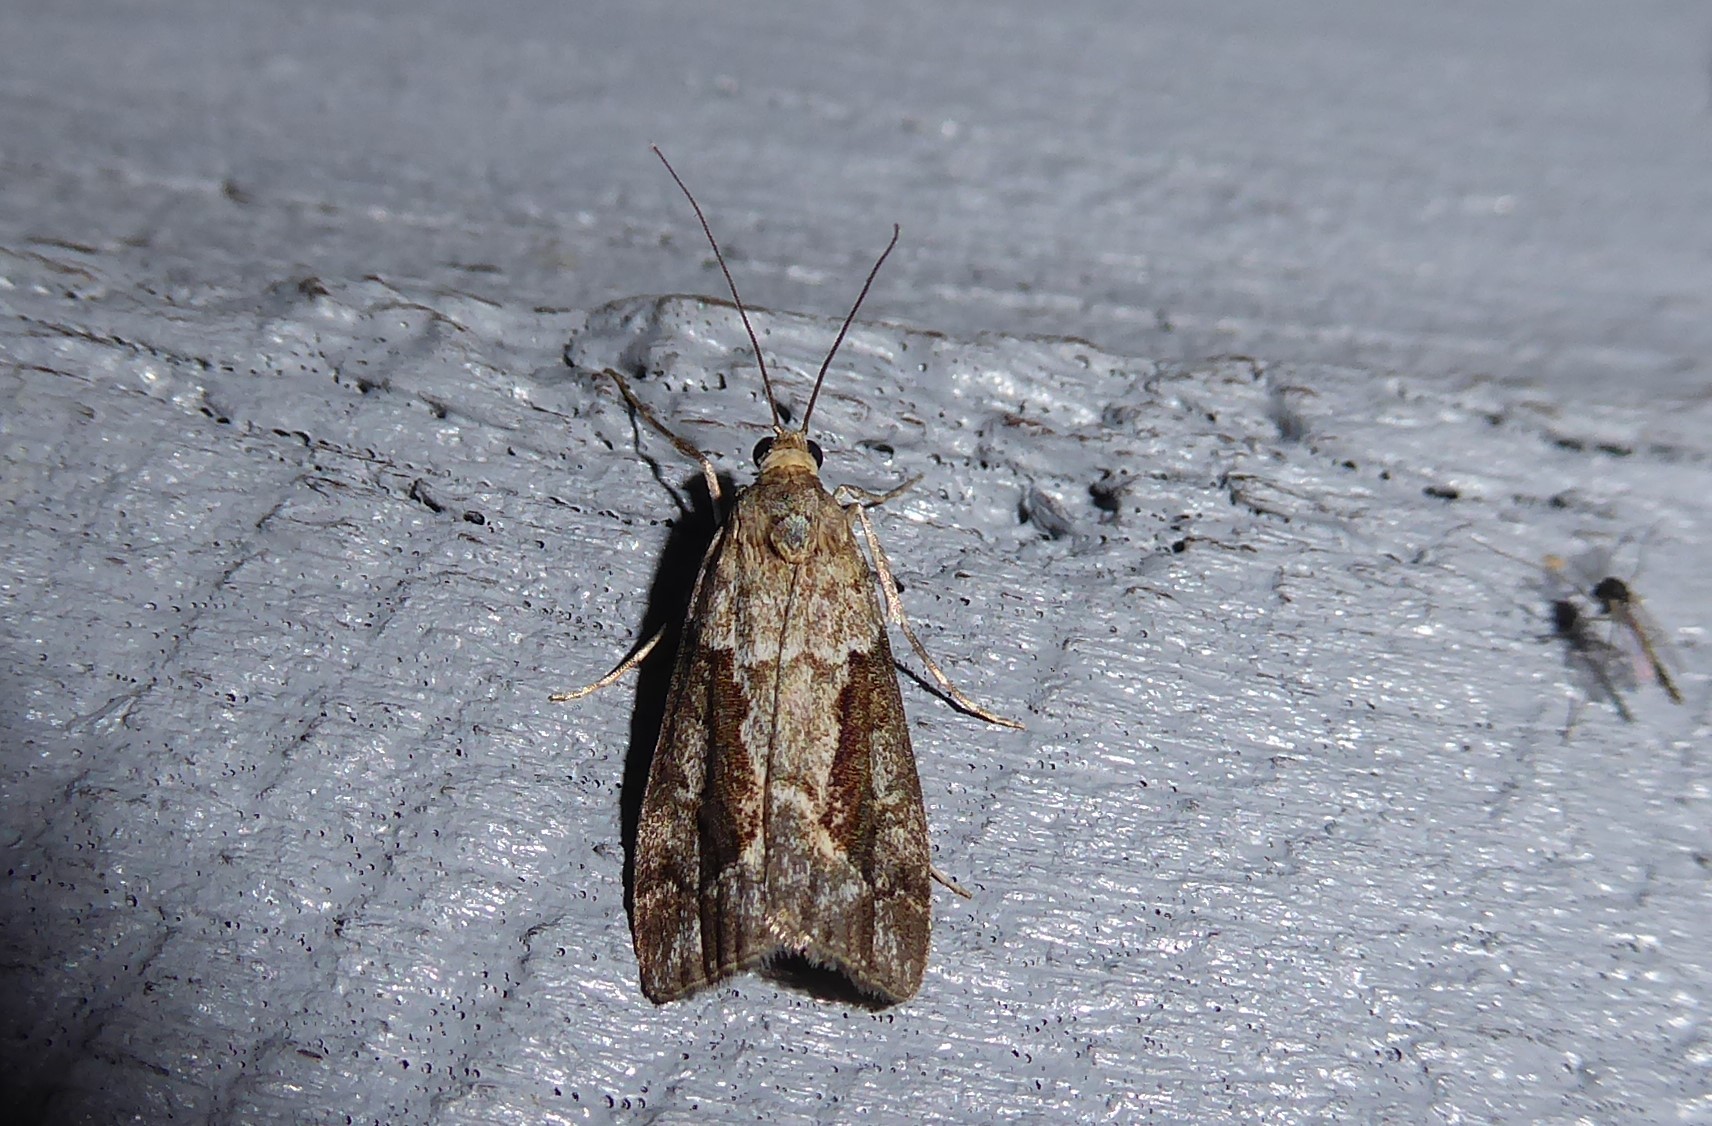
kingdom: Animalia
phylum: Arthropoda
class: Insecta
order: Lepidoptera
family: Crambidae
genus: Eudonia
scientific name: Eudonia submarginalis
